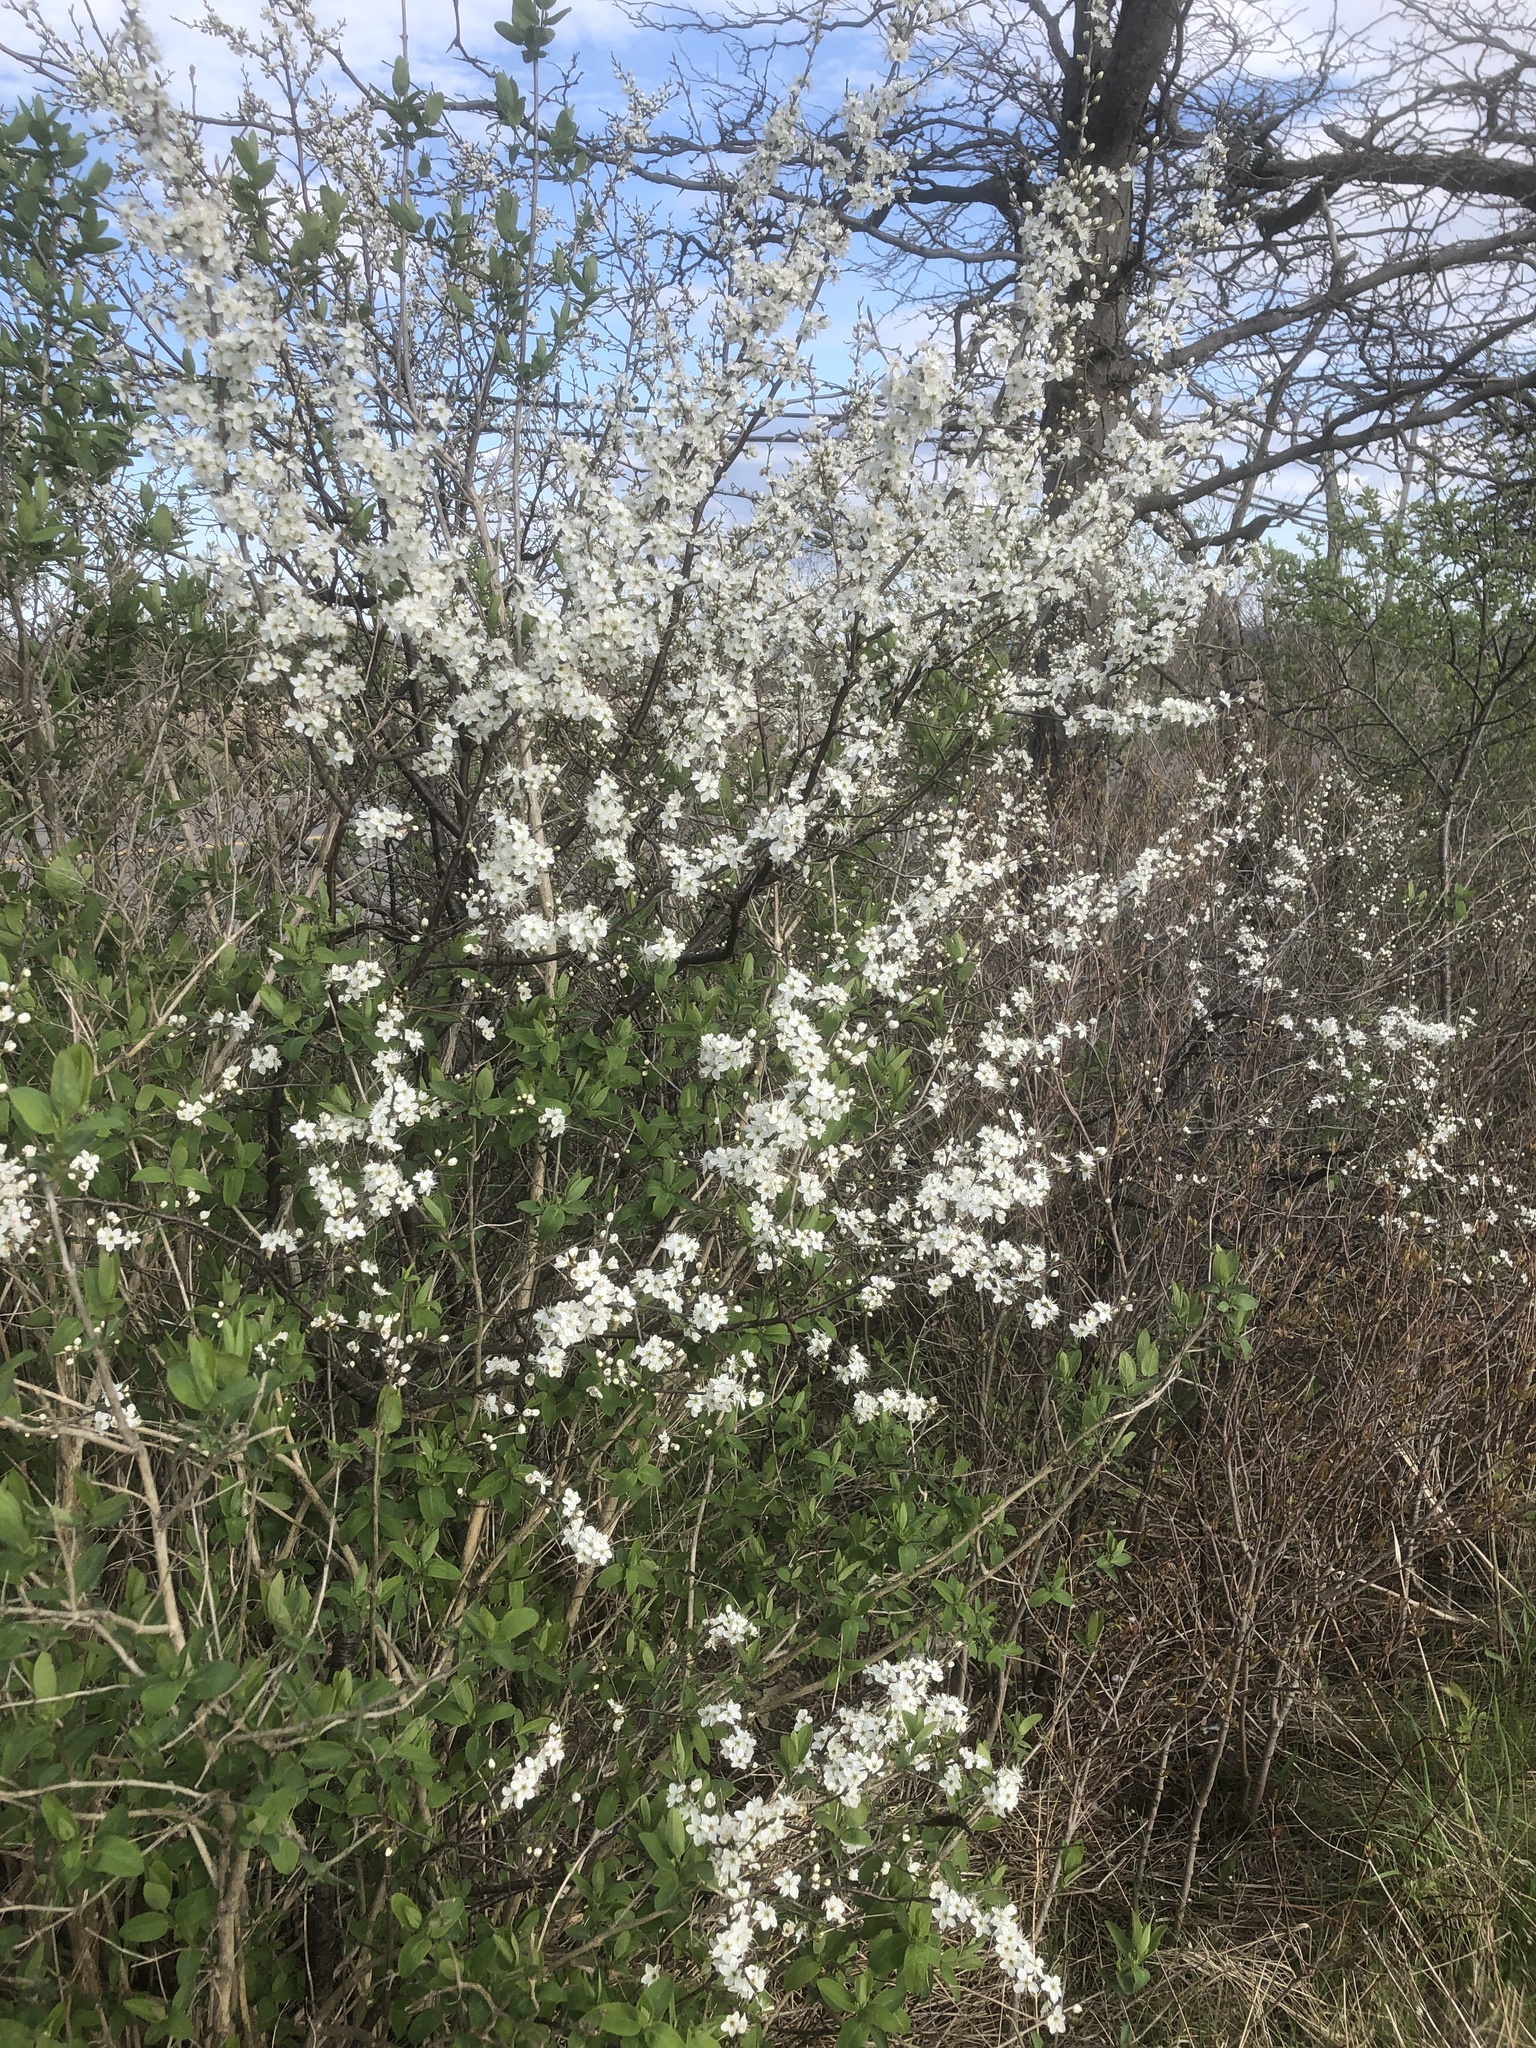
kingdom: Plantae
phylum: Tracheophyta
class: Magnoliopsida
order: Rosales
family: Rosaceae
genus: Prunus
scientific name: Prunus americana
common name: American plum
